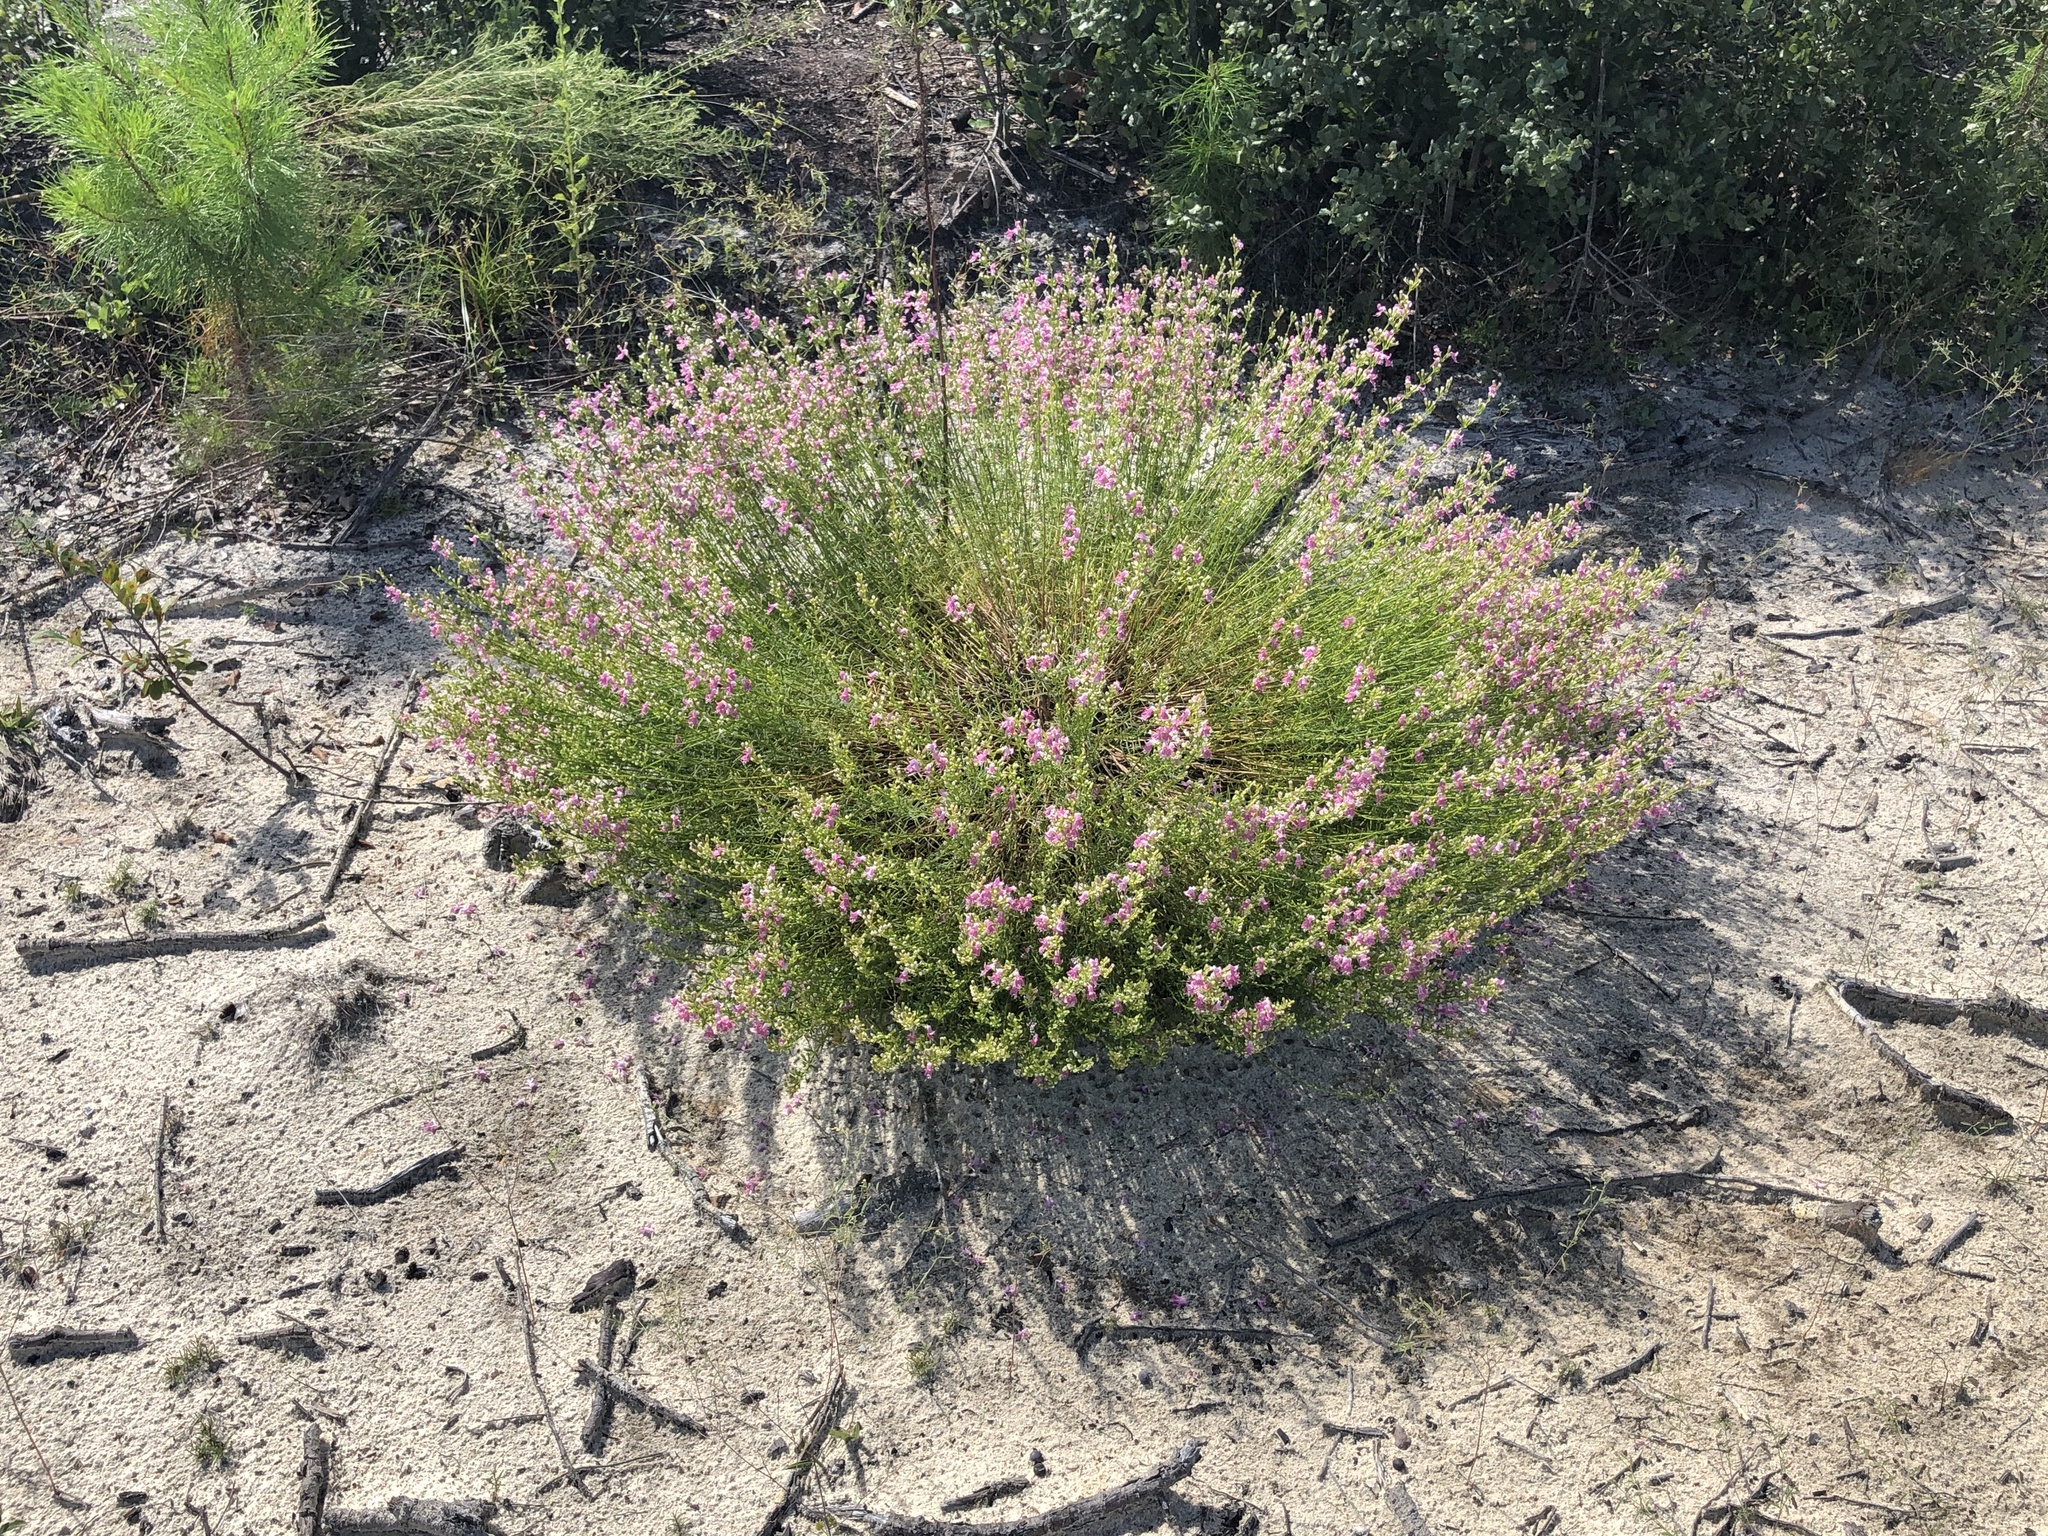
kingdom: Plantae
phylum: Tracheophyta
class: Magnoliopsida
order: Lamiales
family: Lamiaceae
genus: Dicerandra
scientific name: Dicerandra frutescens
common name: Scrub-mint
